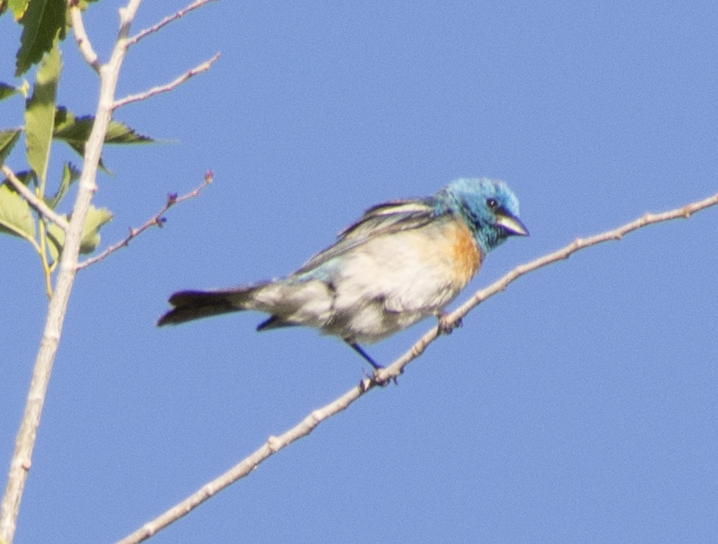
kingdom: Animalia
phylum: Chordata
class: Aves
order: Passeriformes
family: Cardinalidae
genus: Passerina
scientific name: Passerina amoena
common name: Lazuli bunting
